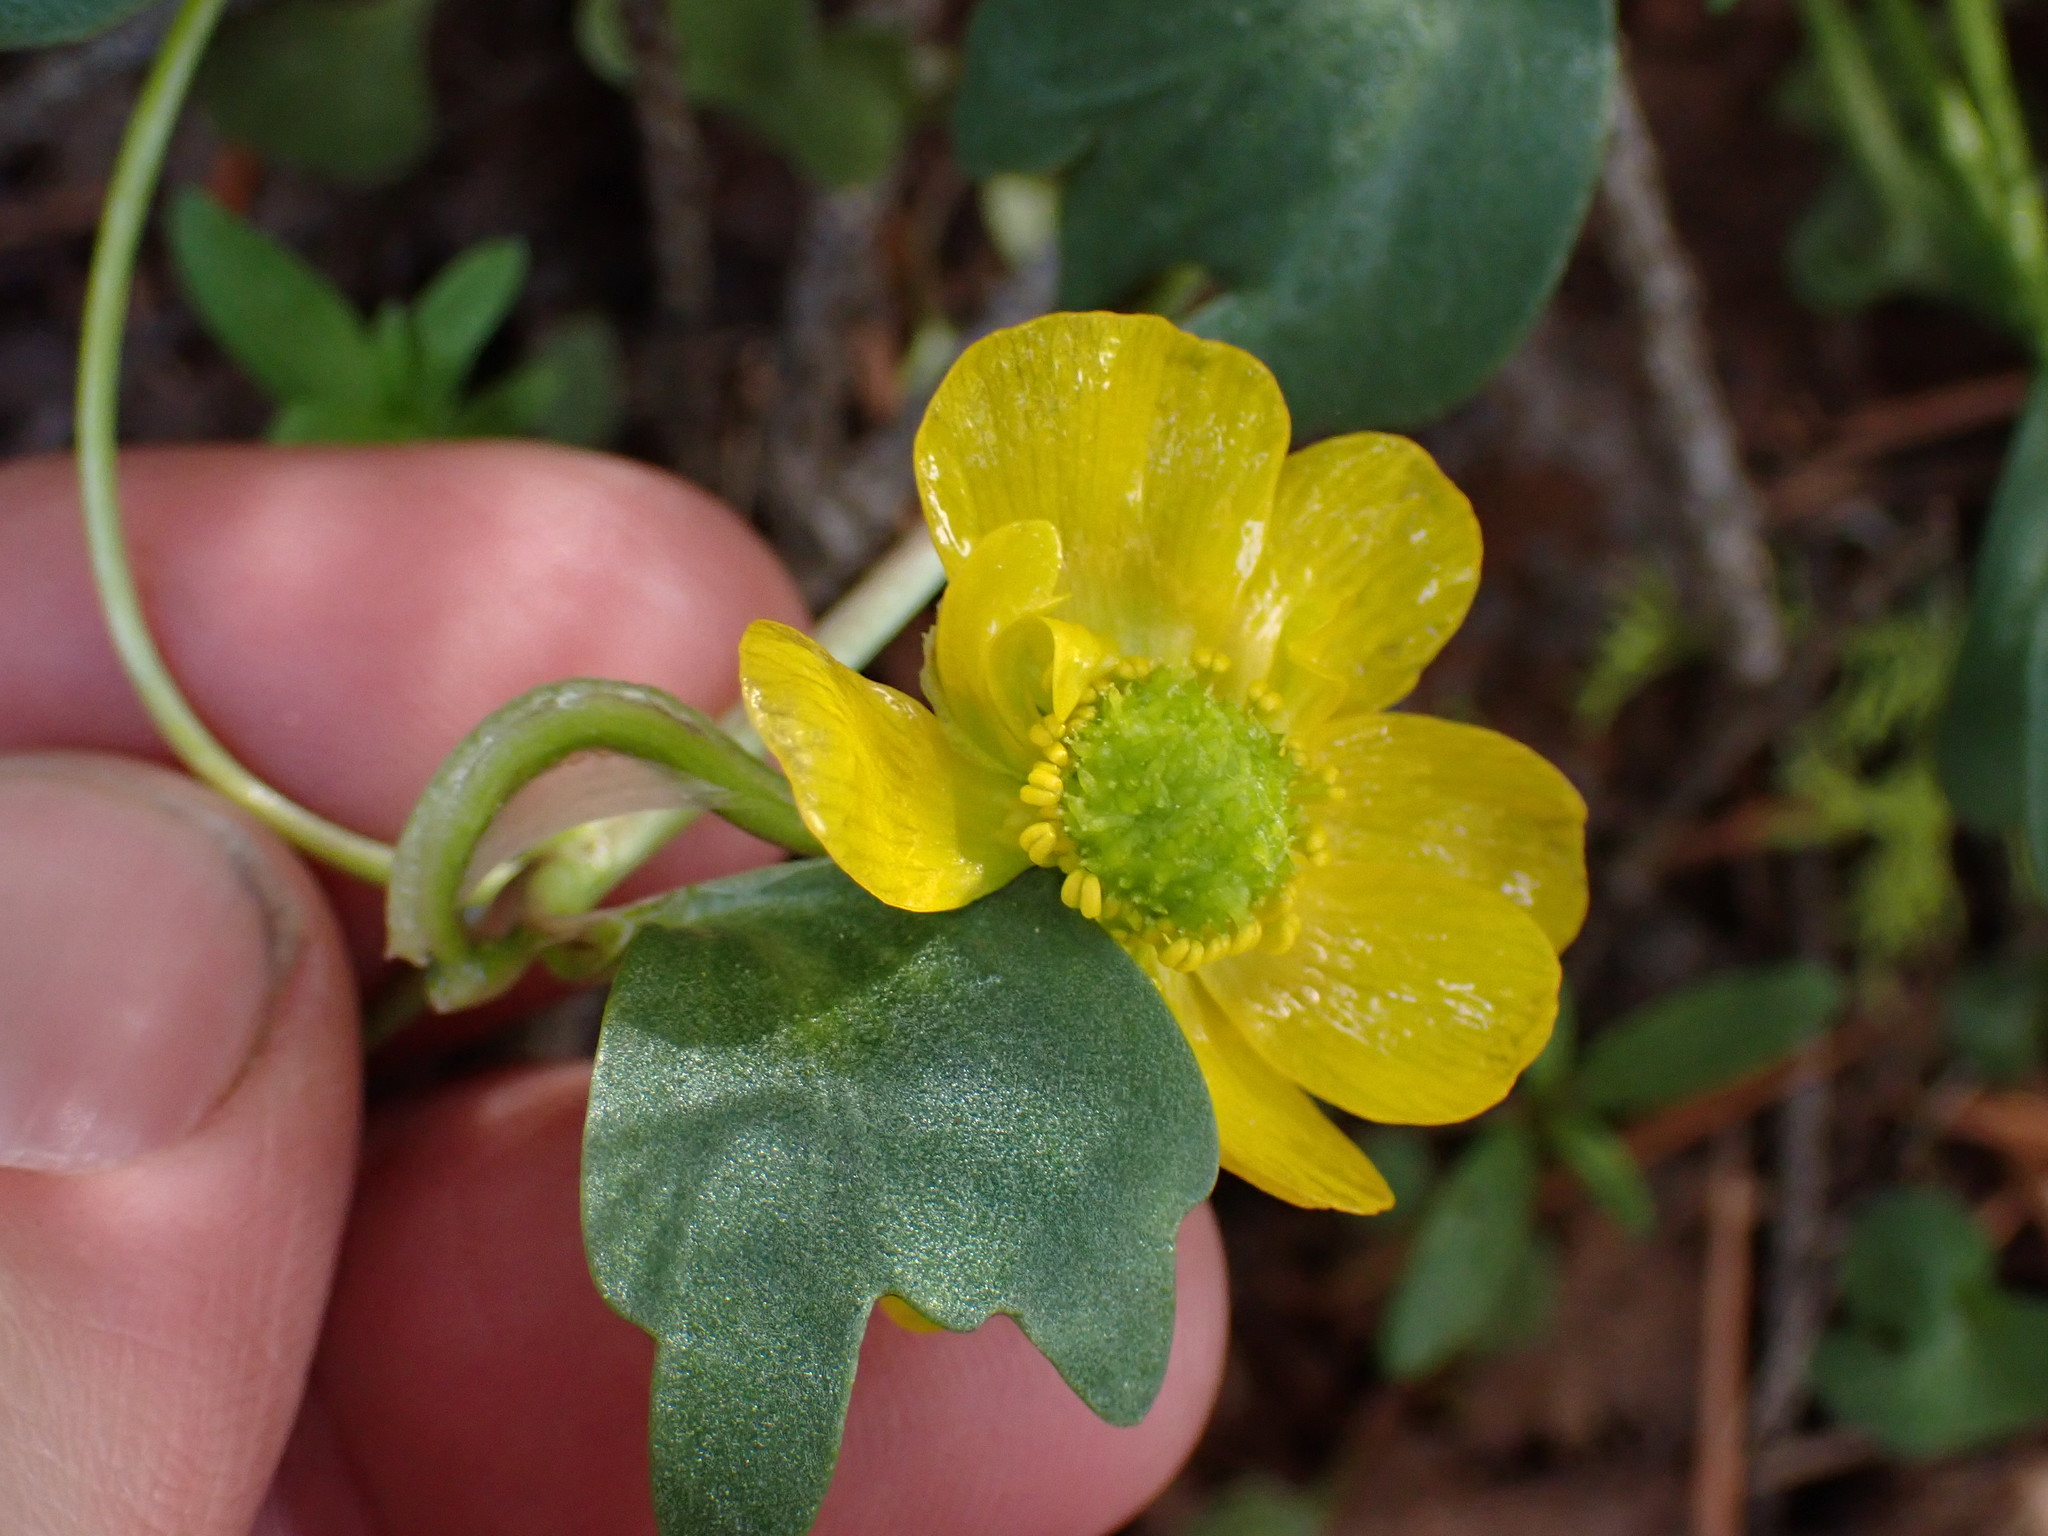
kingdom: Plantae
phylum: Tracheophyta
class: Magnoliopsida
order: Ranunculales
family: Ranunculaceae
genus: Ranunculus
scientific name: Ranunculus glaberrimus
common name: Sagebrush buttercup
